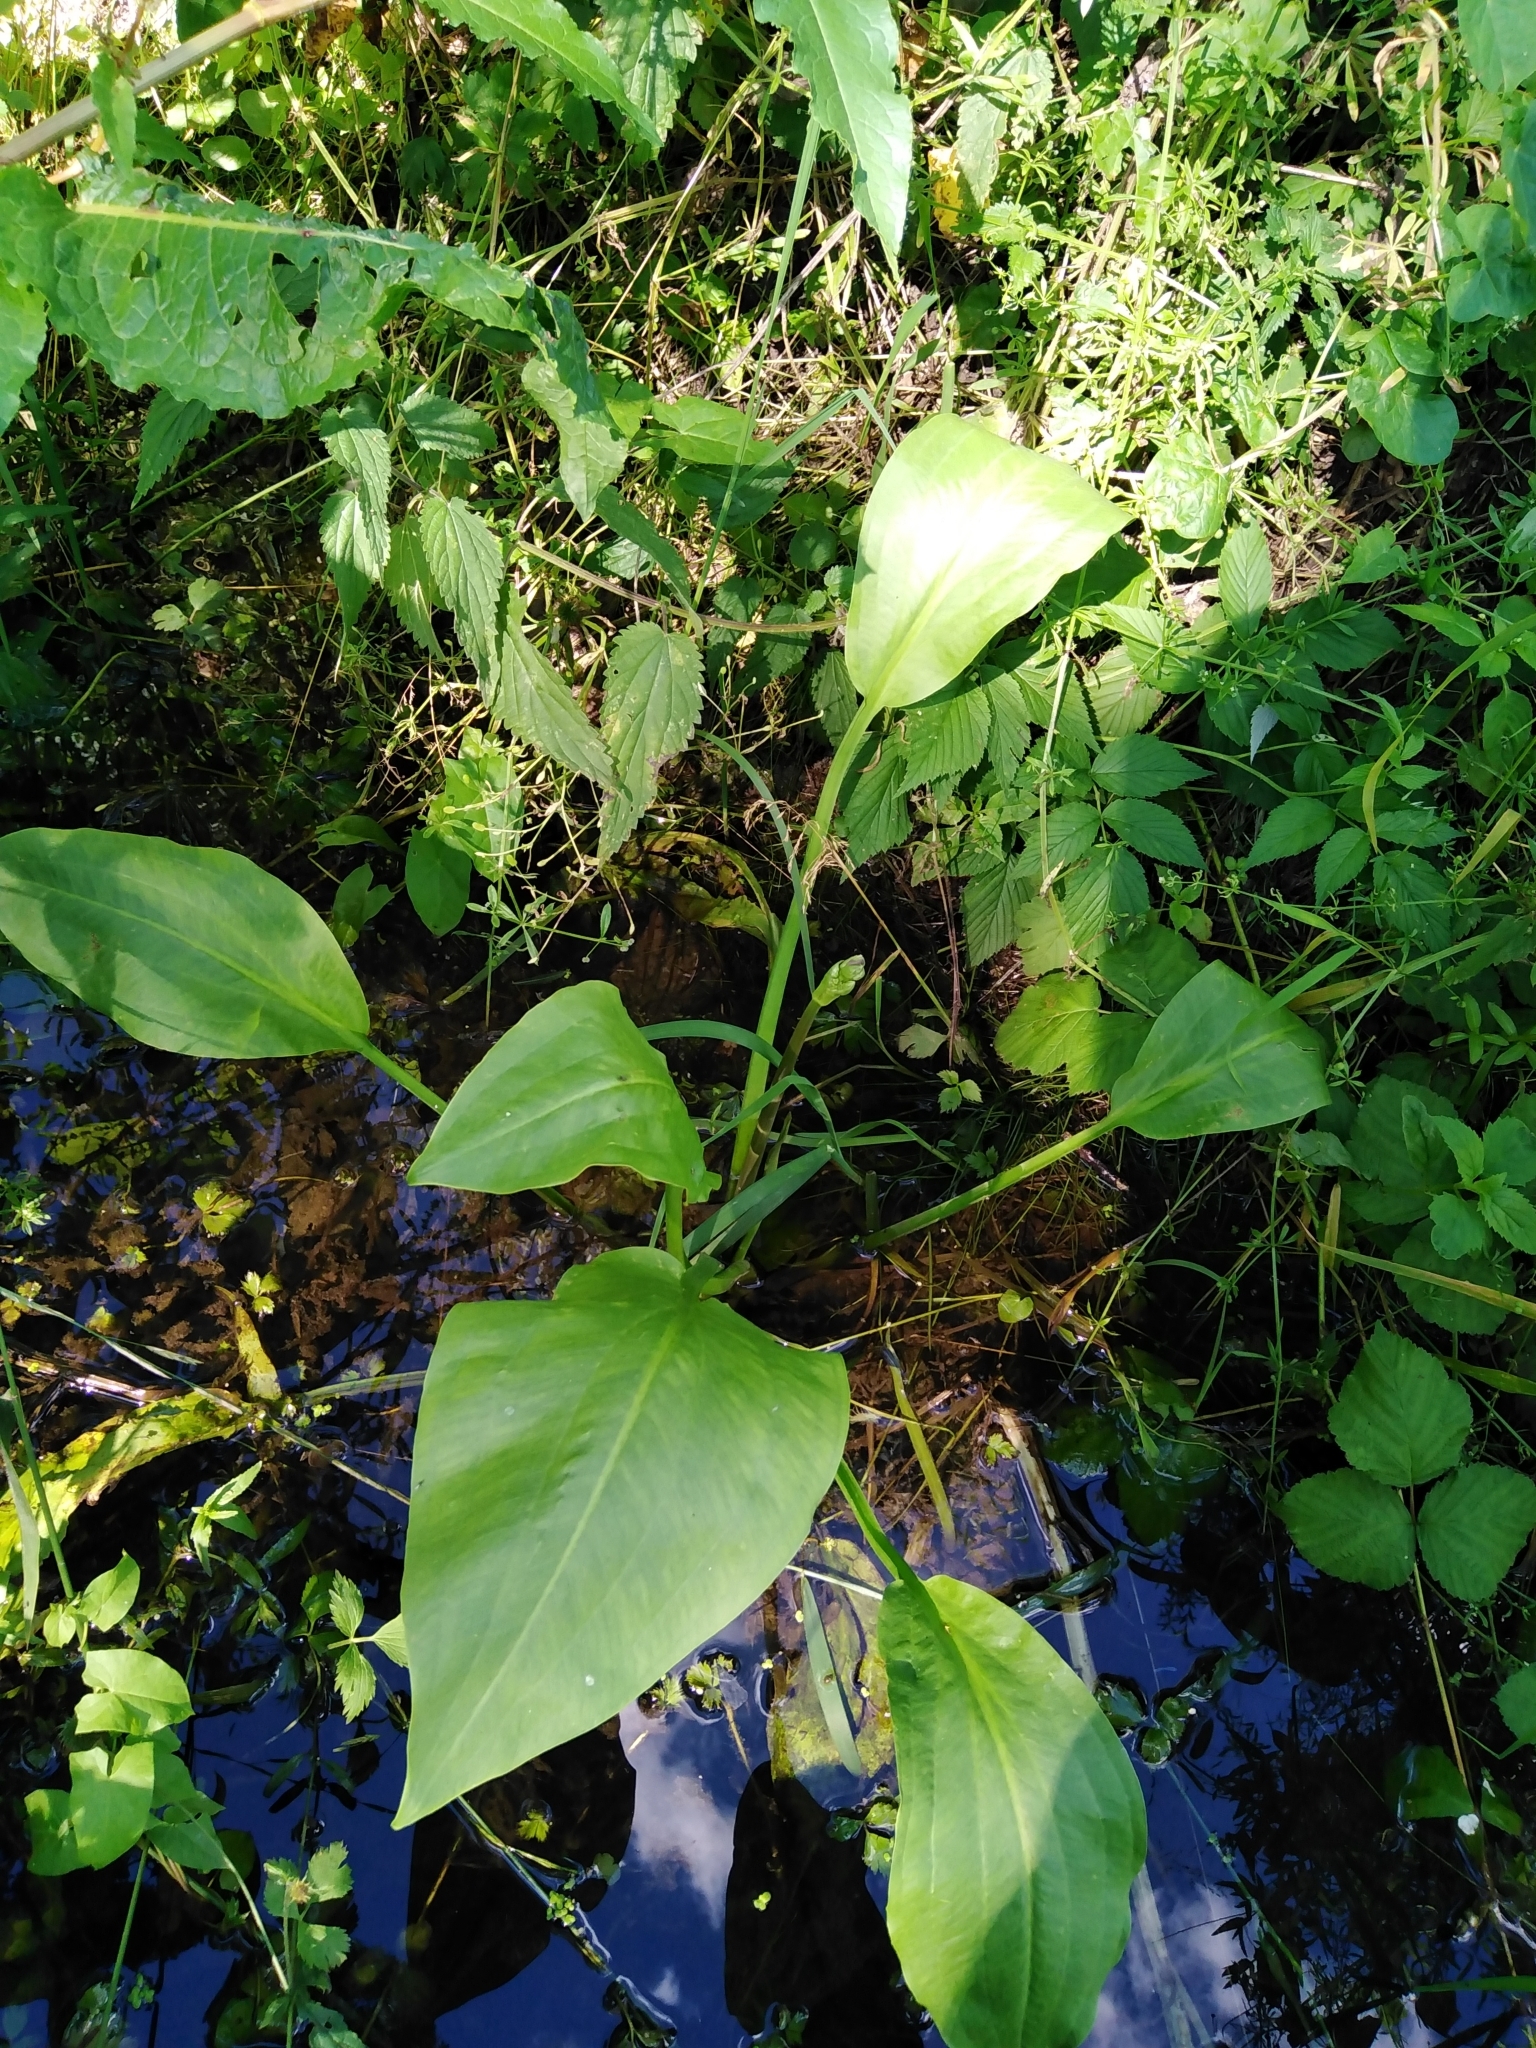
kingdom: Plantae
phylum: Tracheophyta
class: Liliopsida
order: Alismatales
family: Alismataceae
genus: Alisma
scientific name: Alisma plantago-aquatica
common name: Water-plantain
